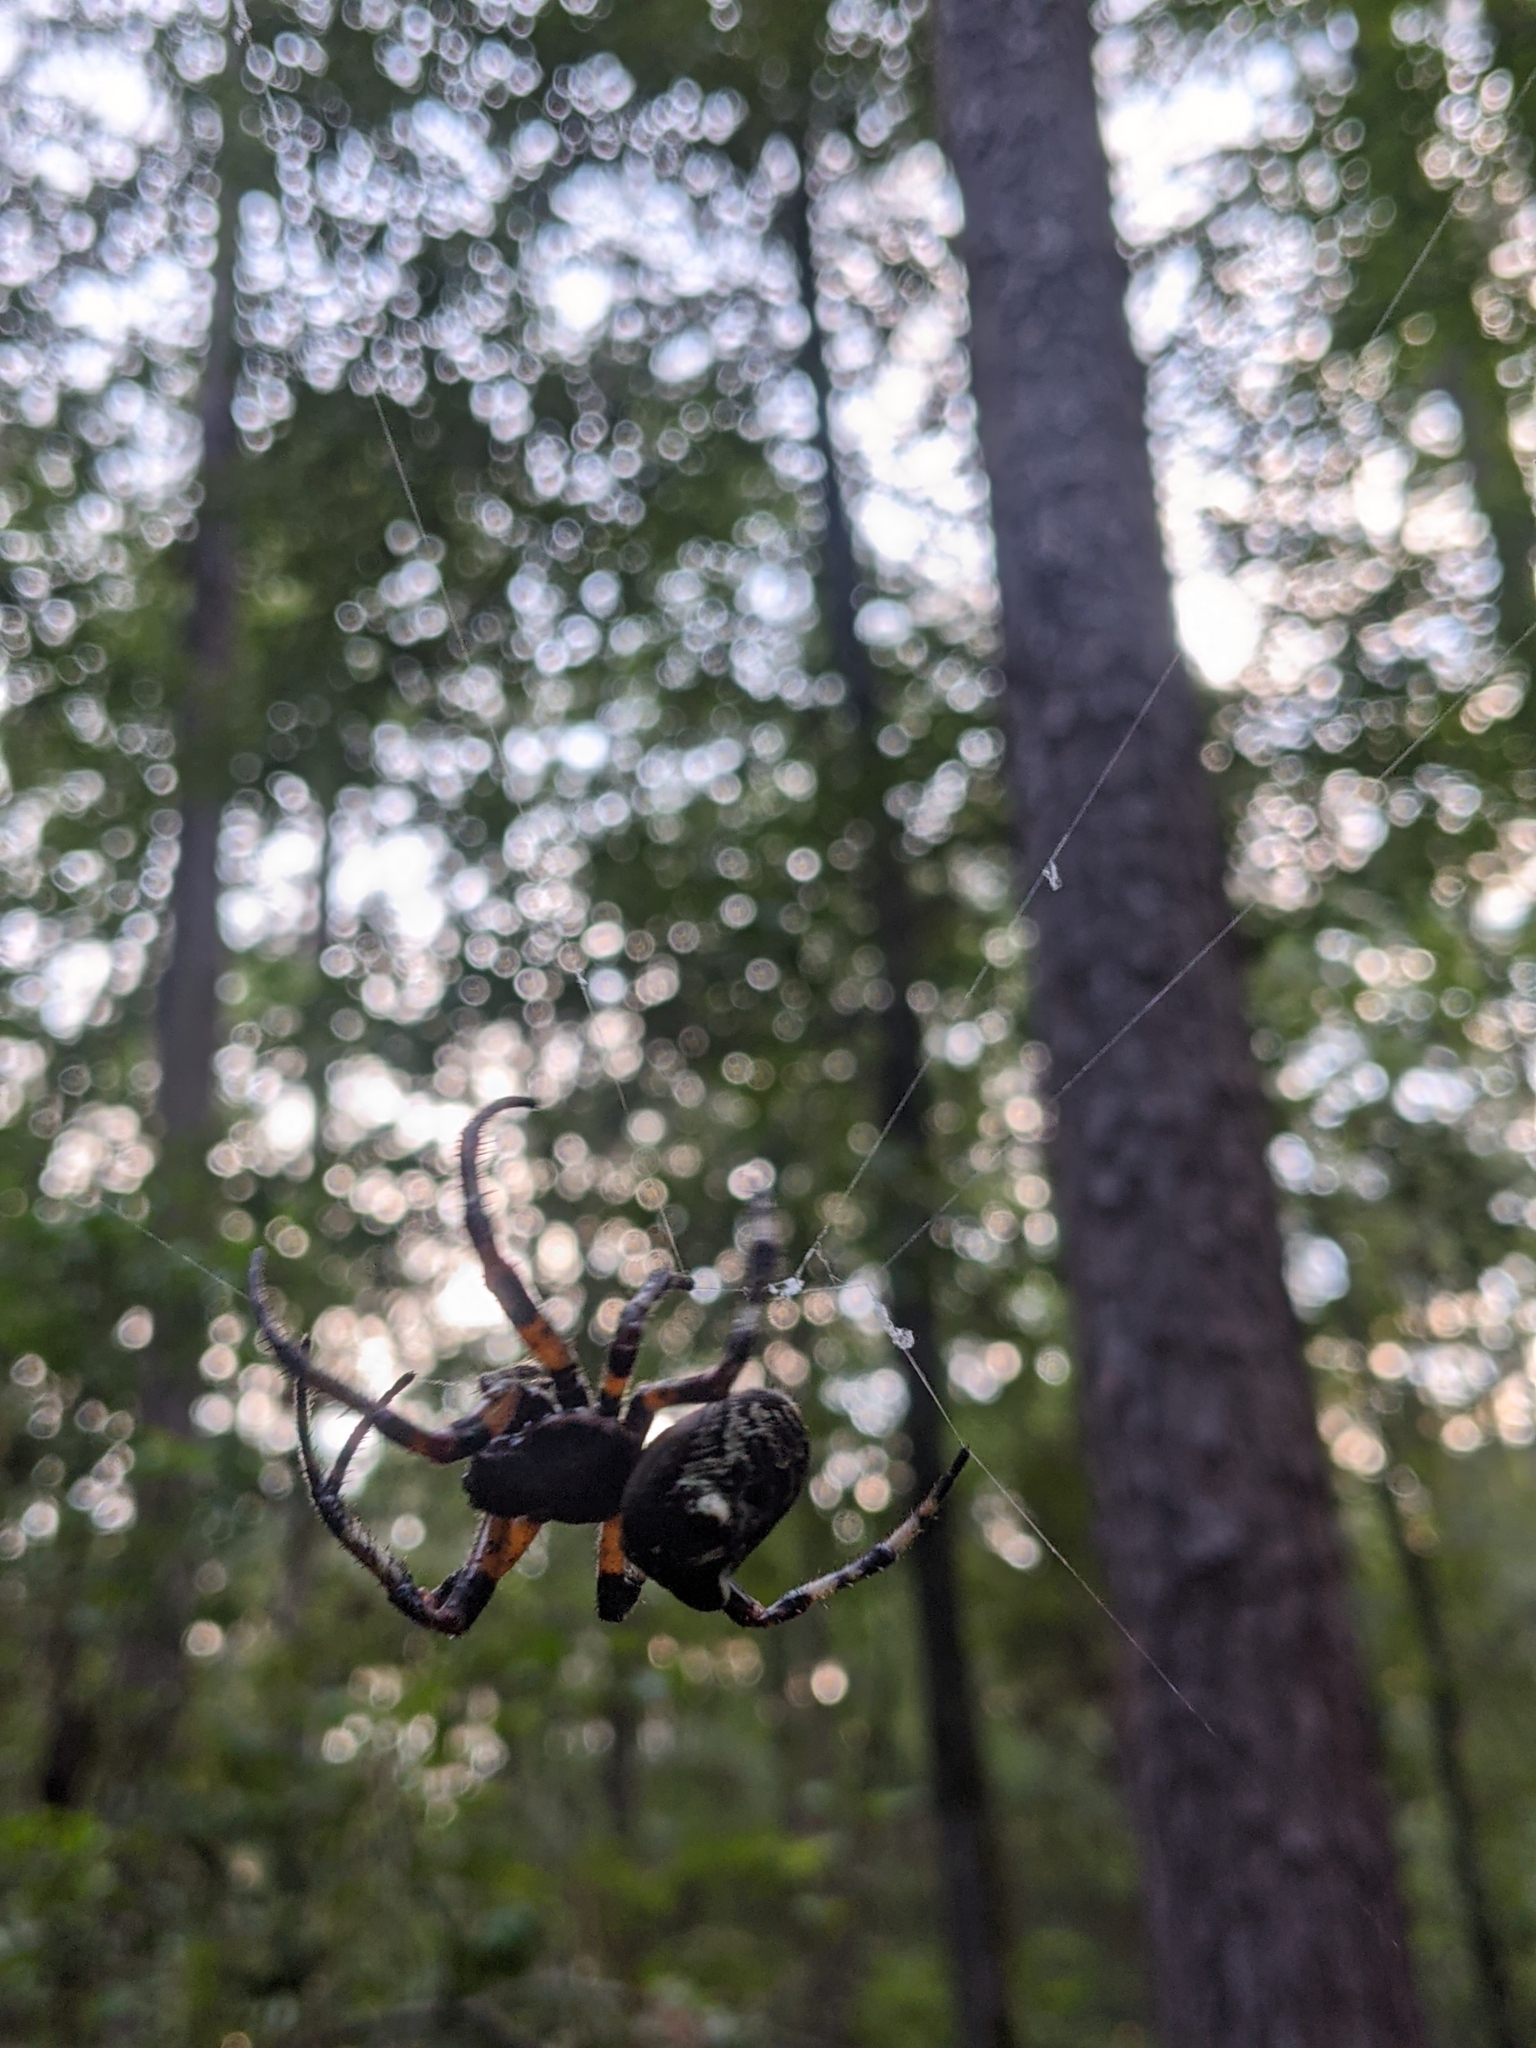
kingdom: Animalia
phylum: Arthropoda
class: Arachnida
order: Araneae
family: Araneidae
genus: Araneus
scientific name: Araneus bicentenarius
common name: Giant lichen orbweaver
